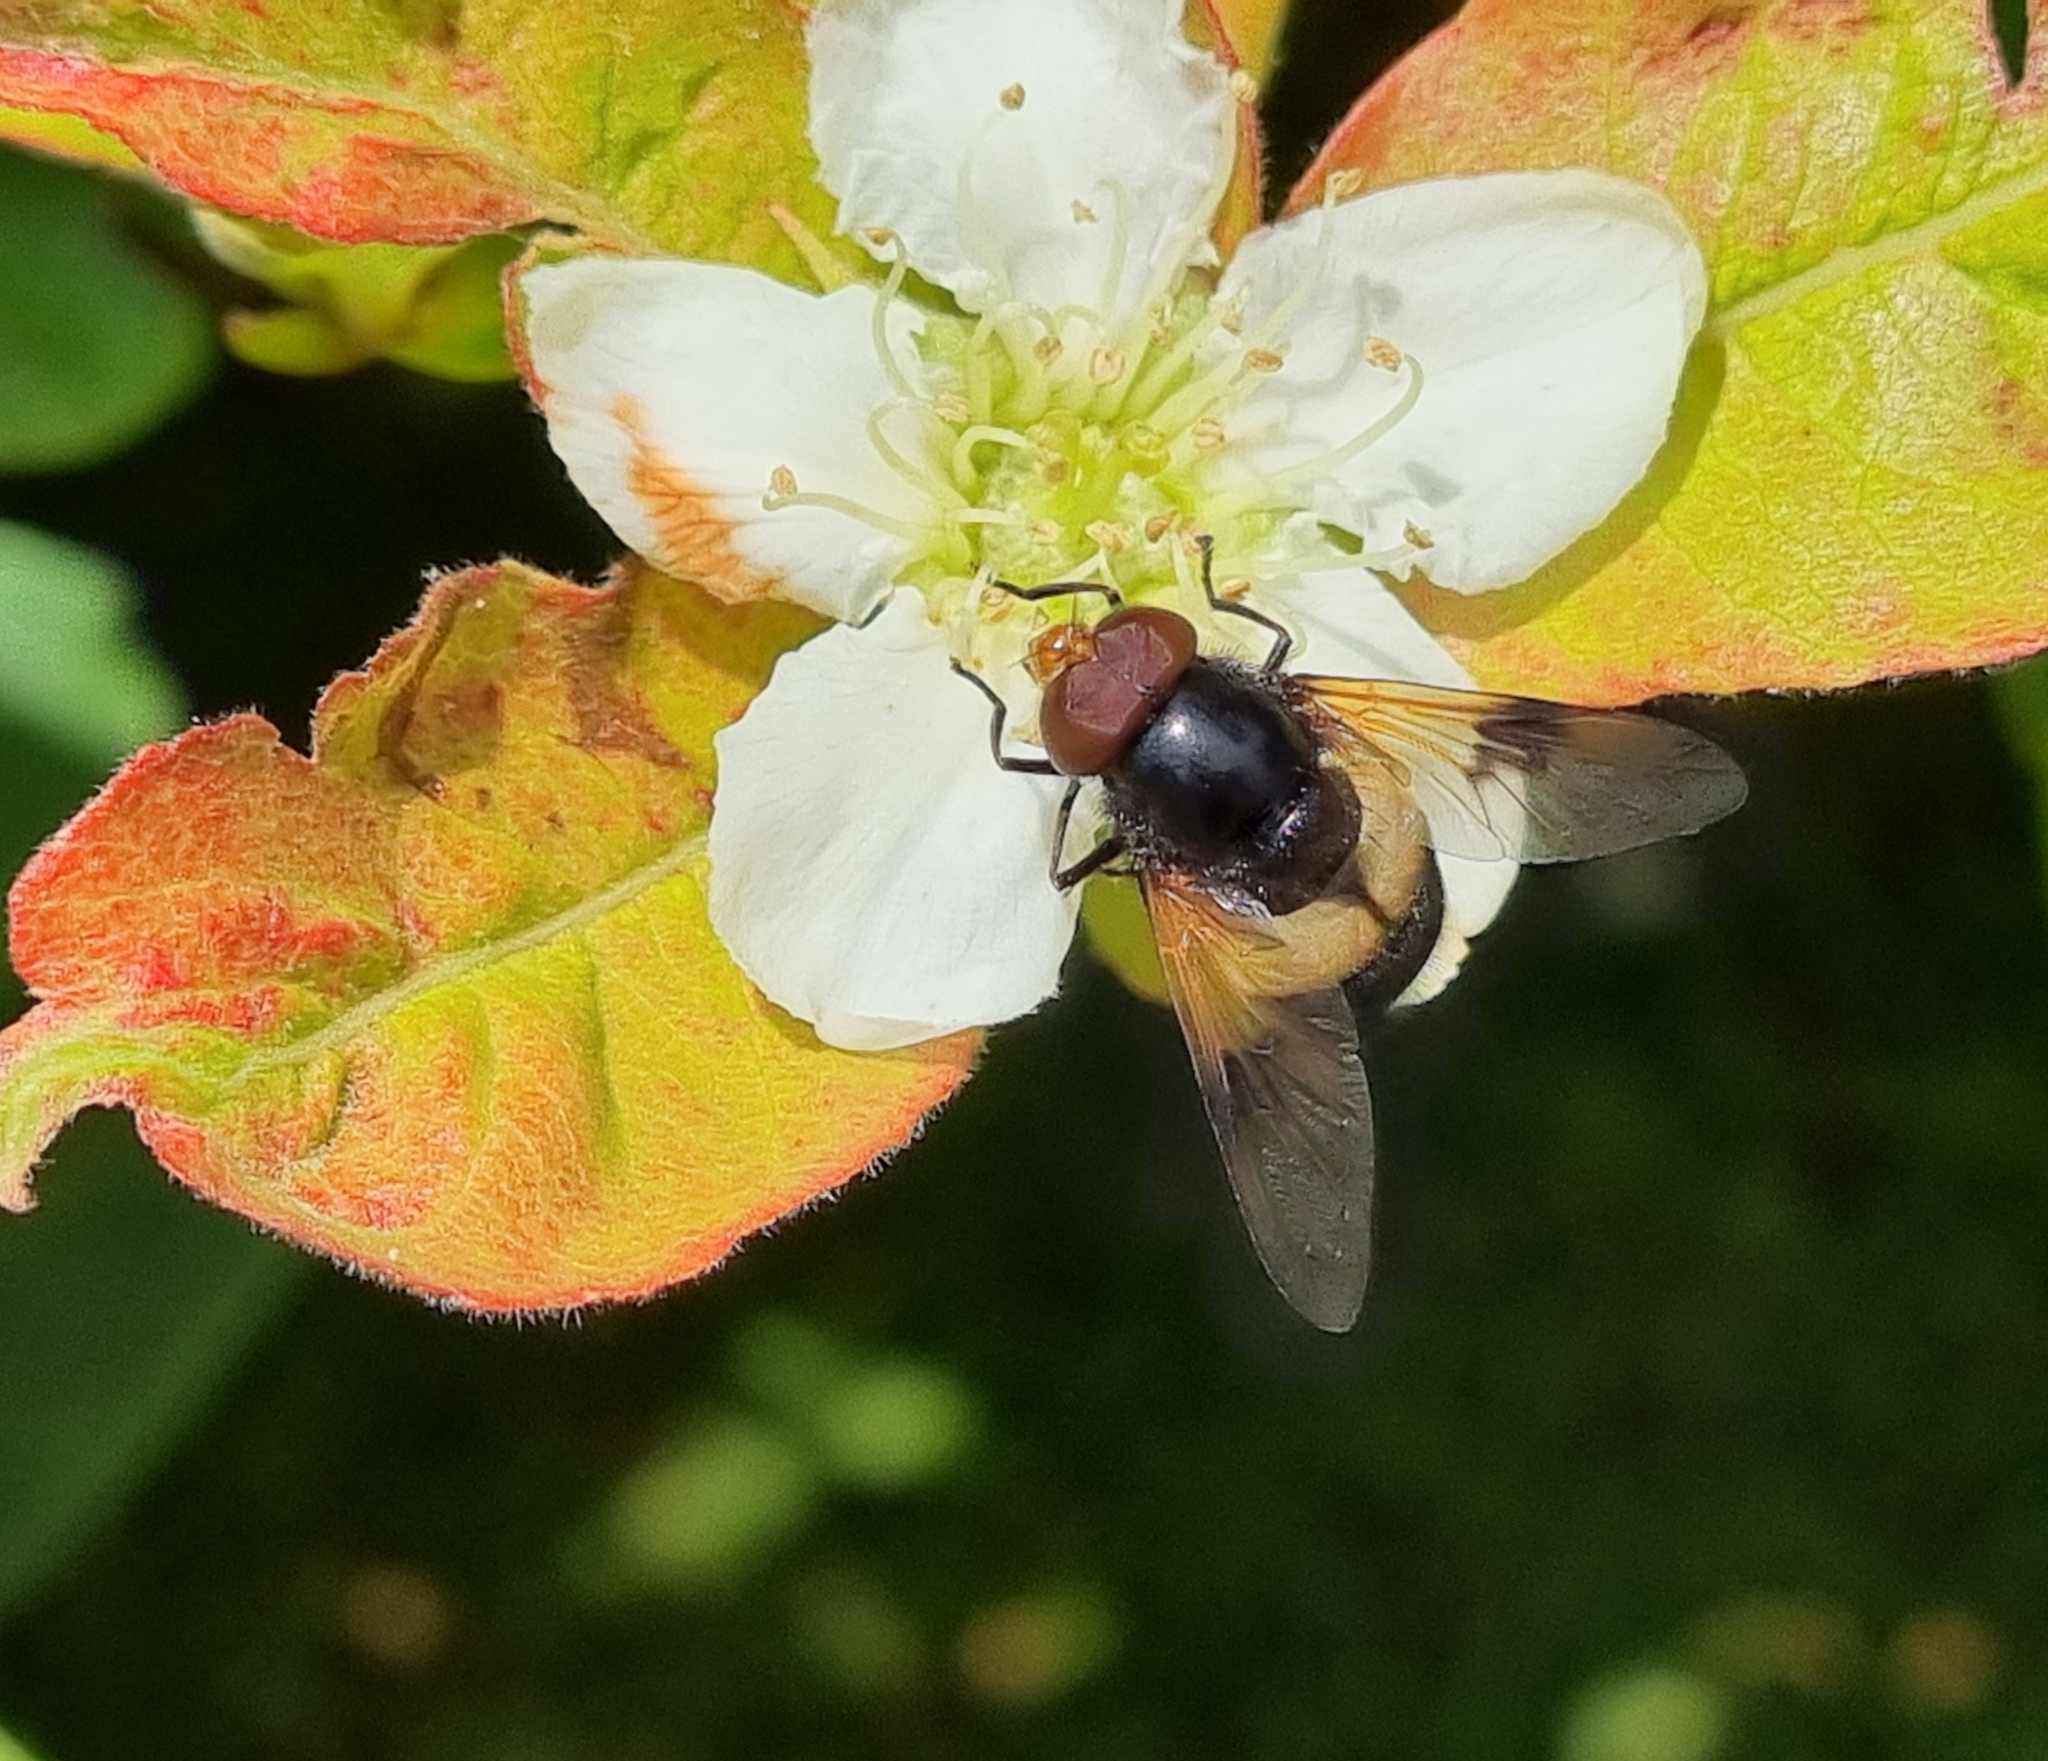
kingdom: Animalia
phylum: Arthropoda
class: Insecta
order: Diptera
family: Syrphidae
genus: Volucella
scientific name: Volucella pellucens
